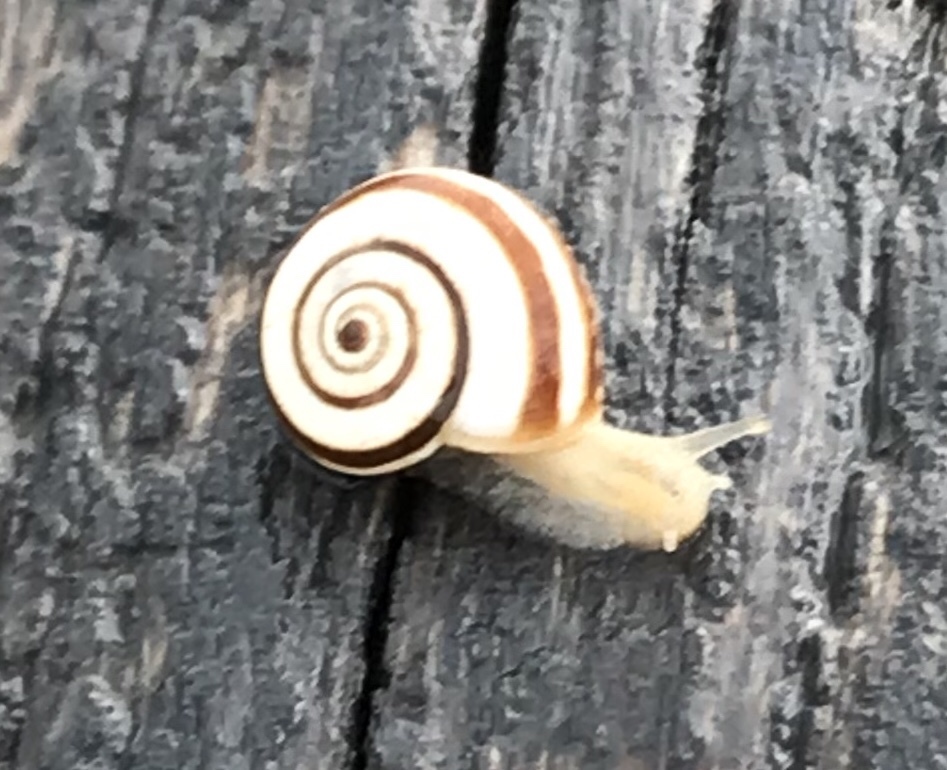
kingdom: Animalia
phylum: Mollusca
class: Gastropoda
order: Stylommatophora
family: Geomitridae
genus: Helicella
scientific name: Helicella itala
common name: Heath snail
